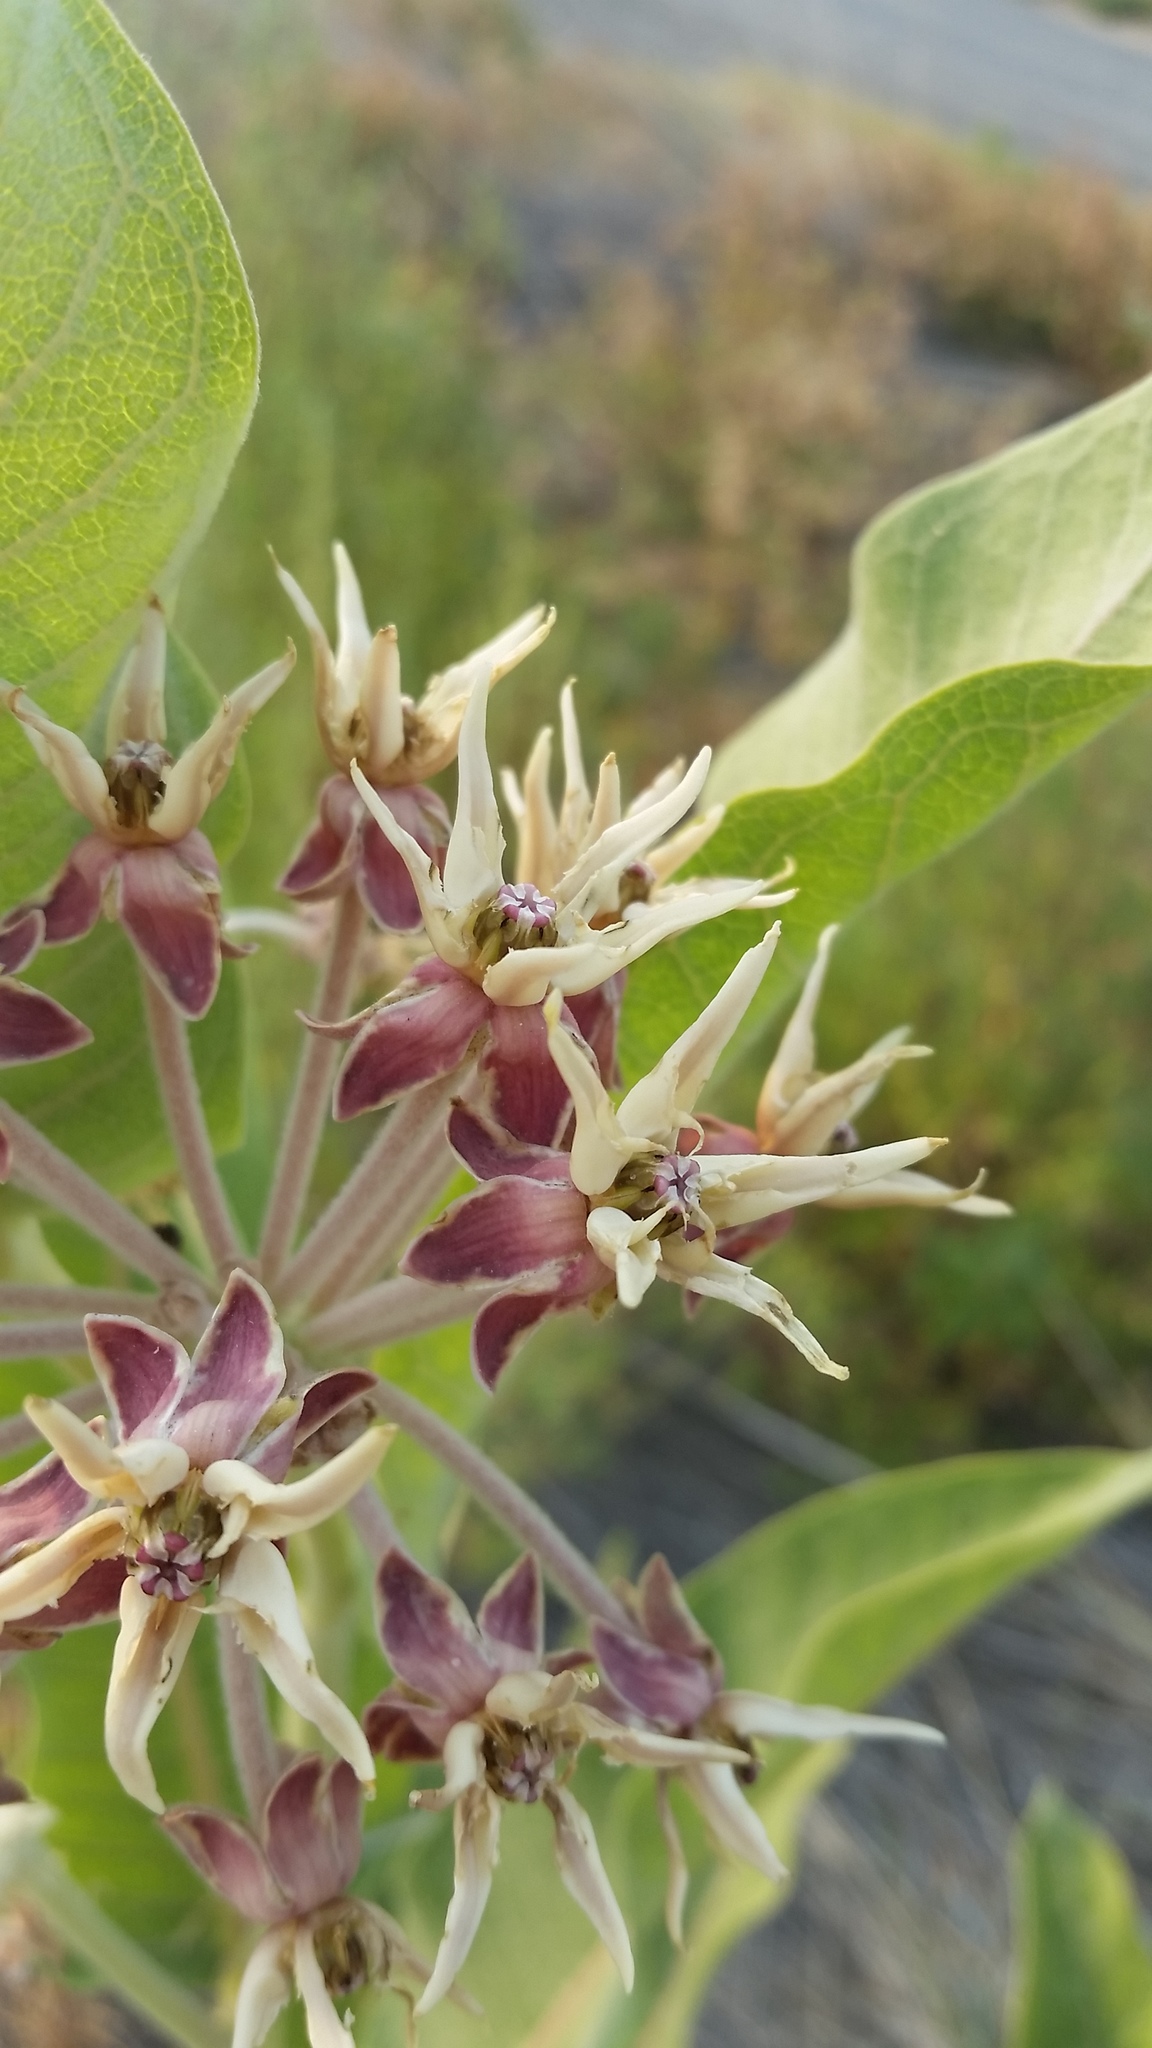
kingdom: Plantae
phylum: Tracheophyta
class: Magnoliopsida
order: Gentianales
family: Apocynaceae
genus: Asclepias
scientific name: Asclepias speciosa
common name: Showy milkweed
